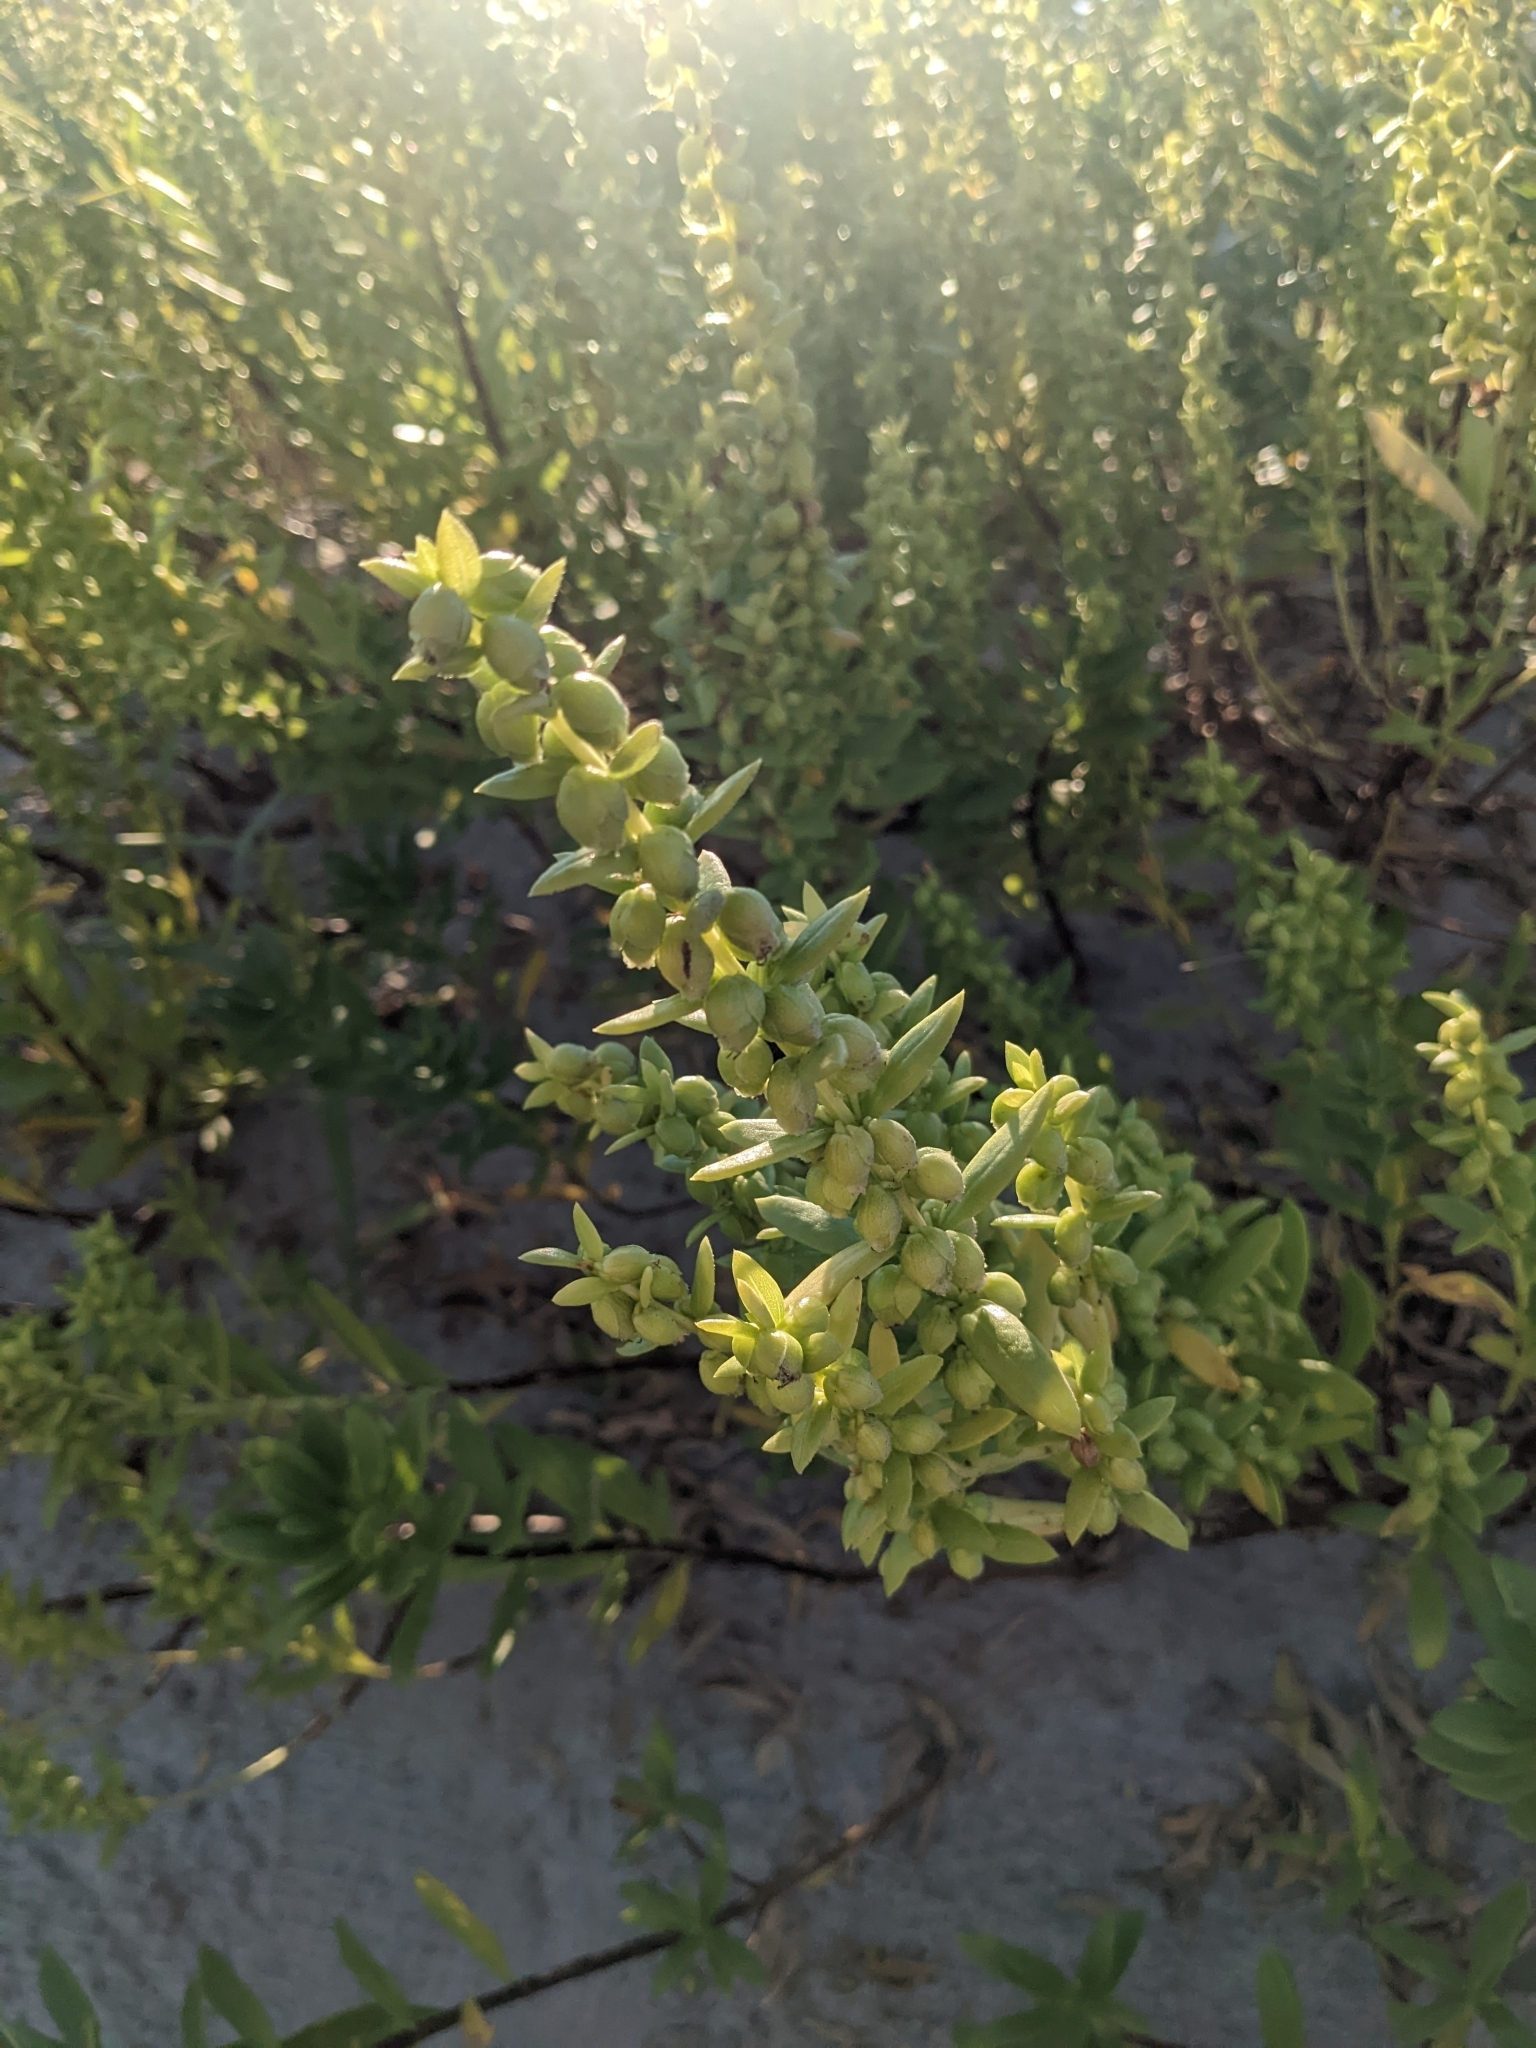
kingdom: Plantae
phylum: Tracheophyta
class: Magnoliopsida
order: Asterales
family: Asteraceae
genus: Iva
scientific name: Iva imbricata
